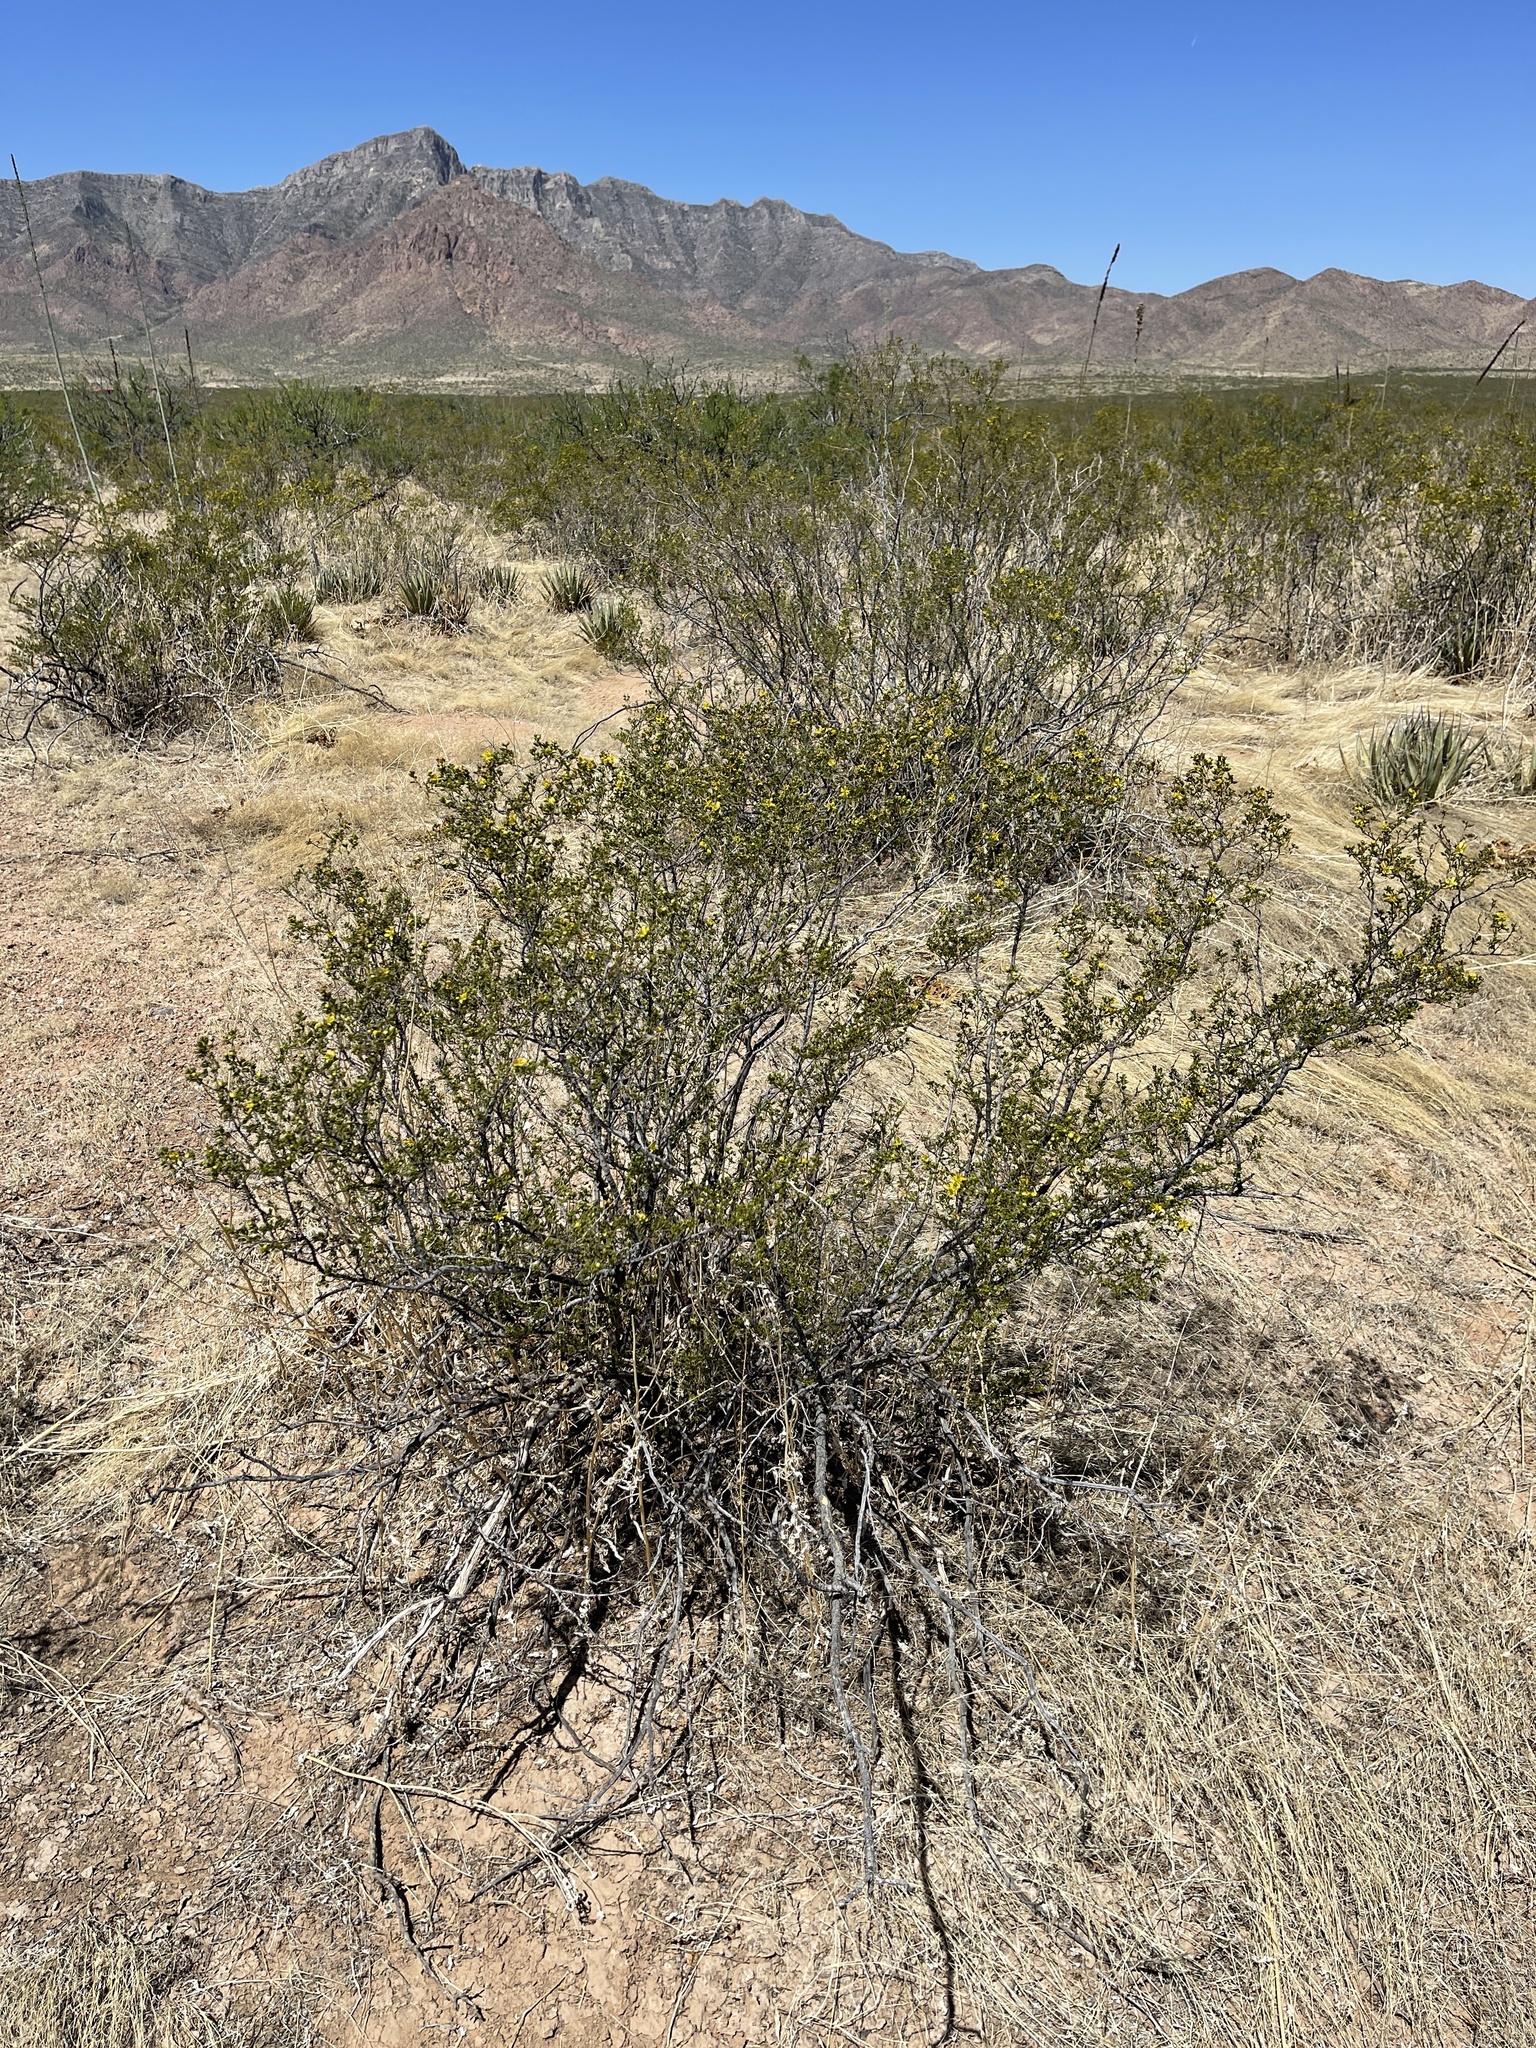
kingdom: Plantae
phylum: Tracheophyta
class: Magnoliopsida
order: Zygophyllales
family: Zygophyllaceae
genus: Larrea
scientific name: Larrea tridentata
